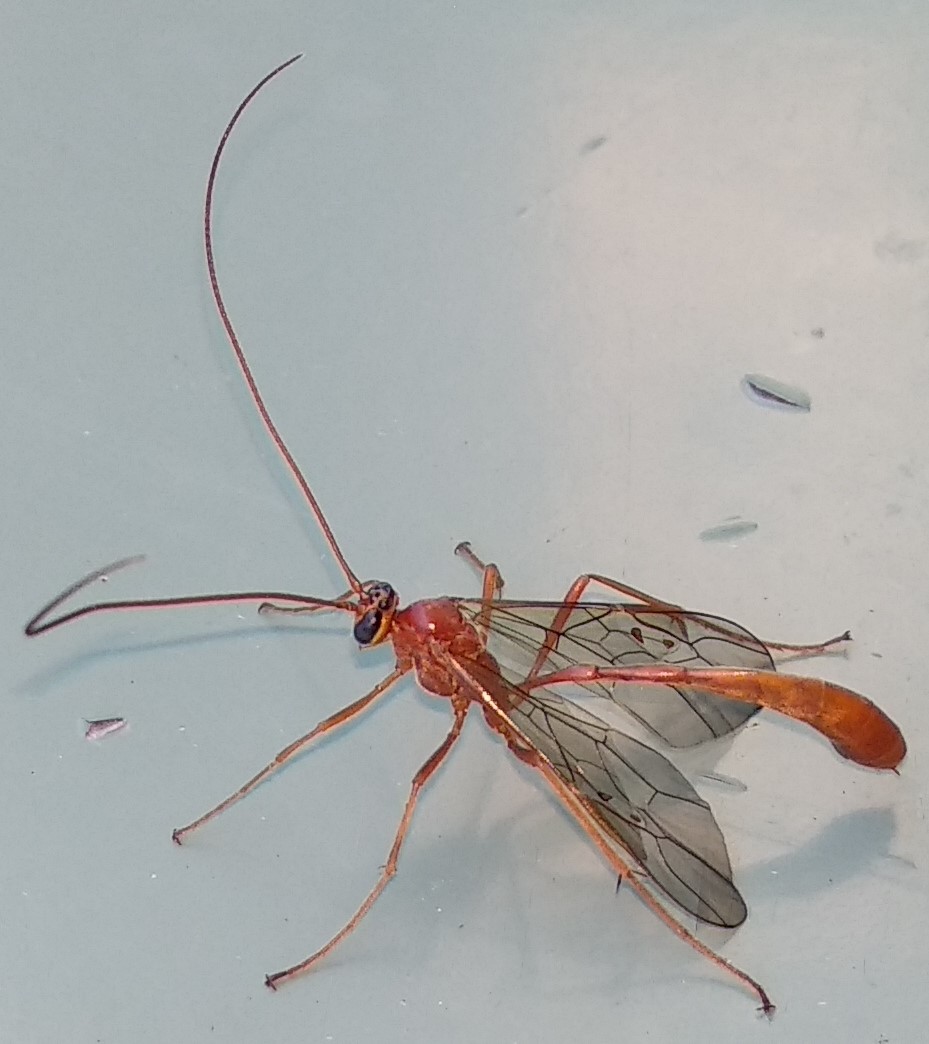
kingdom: Animalia
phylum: Arthropoda
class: Insecta
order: Hymenoptera
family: Ichneumonidae
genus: Enicospilus
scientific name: Enicospilus purgatus
